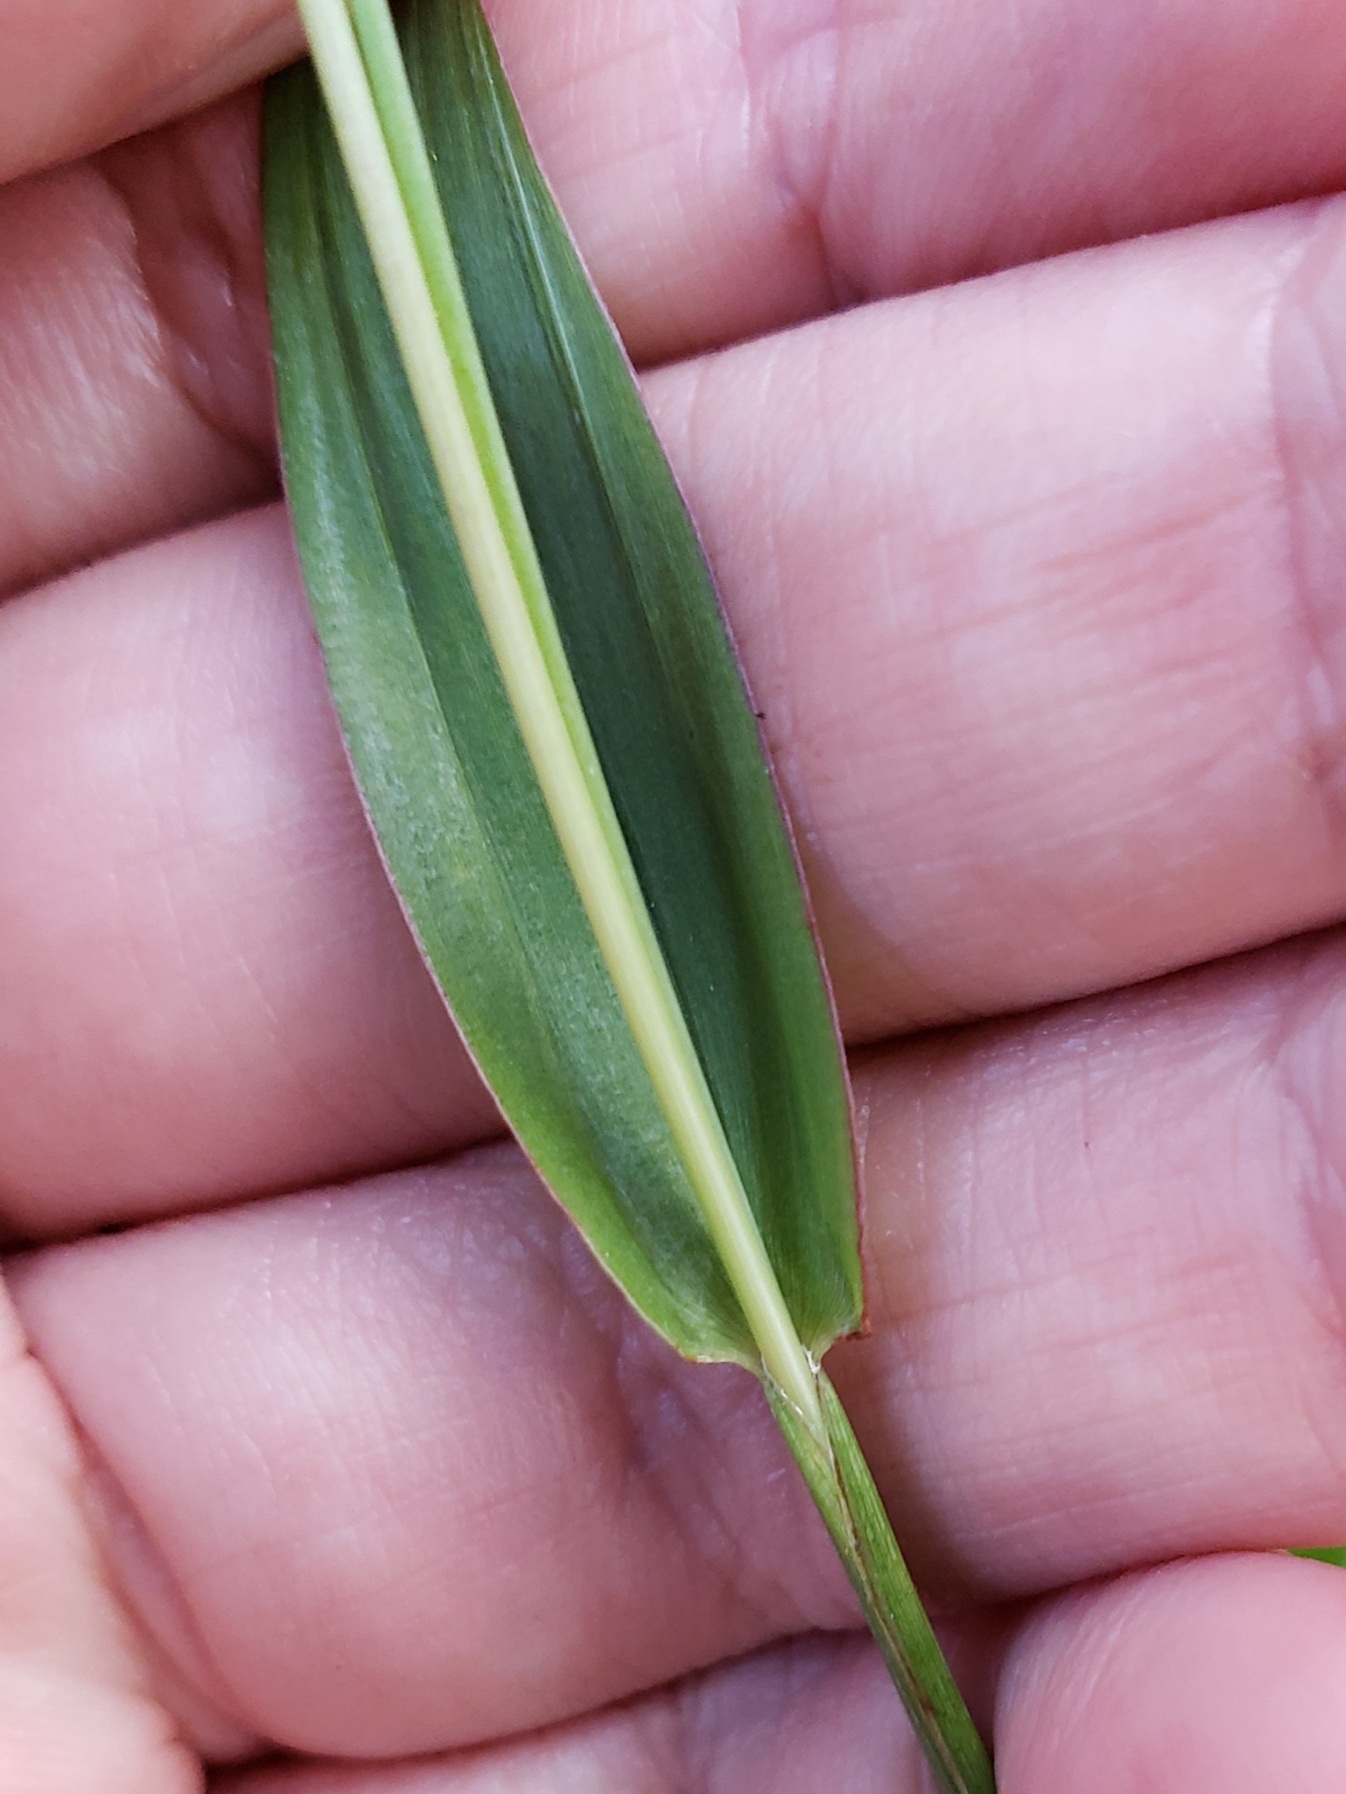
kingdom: Plantae
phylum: Tracheophyta
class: Liliopsida
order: Poales
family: Poaceae
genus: Digitaria
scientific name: Digitaria sanguinalis
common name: Hairy crabgrass
